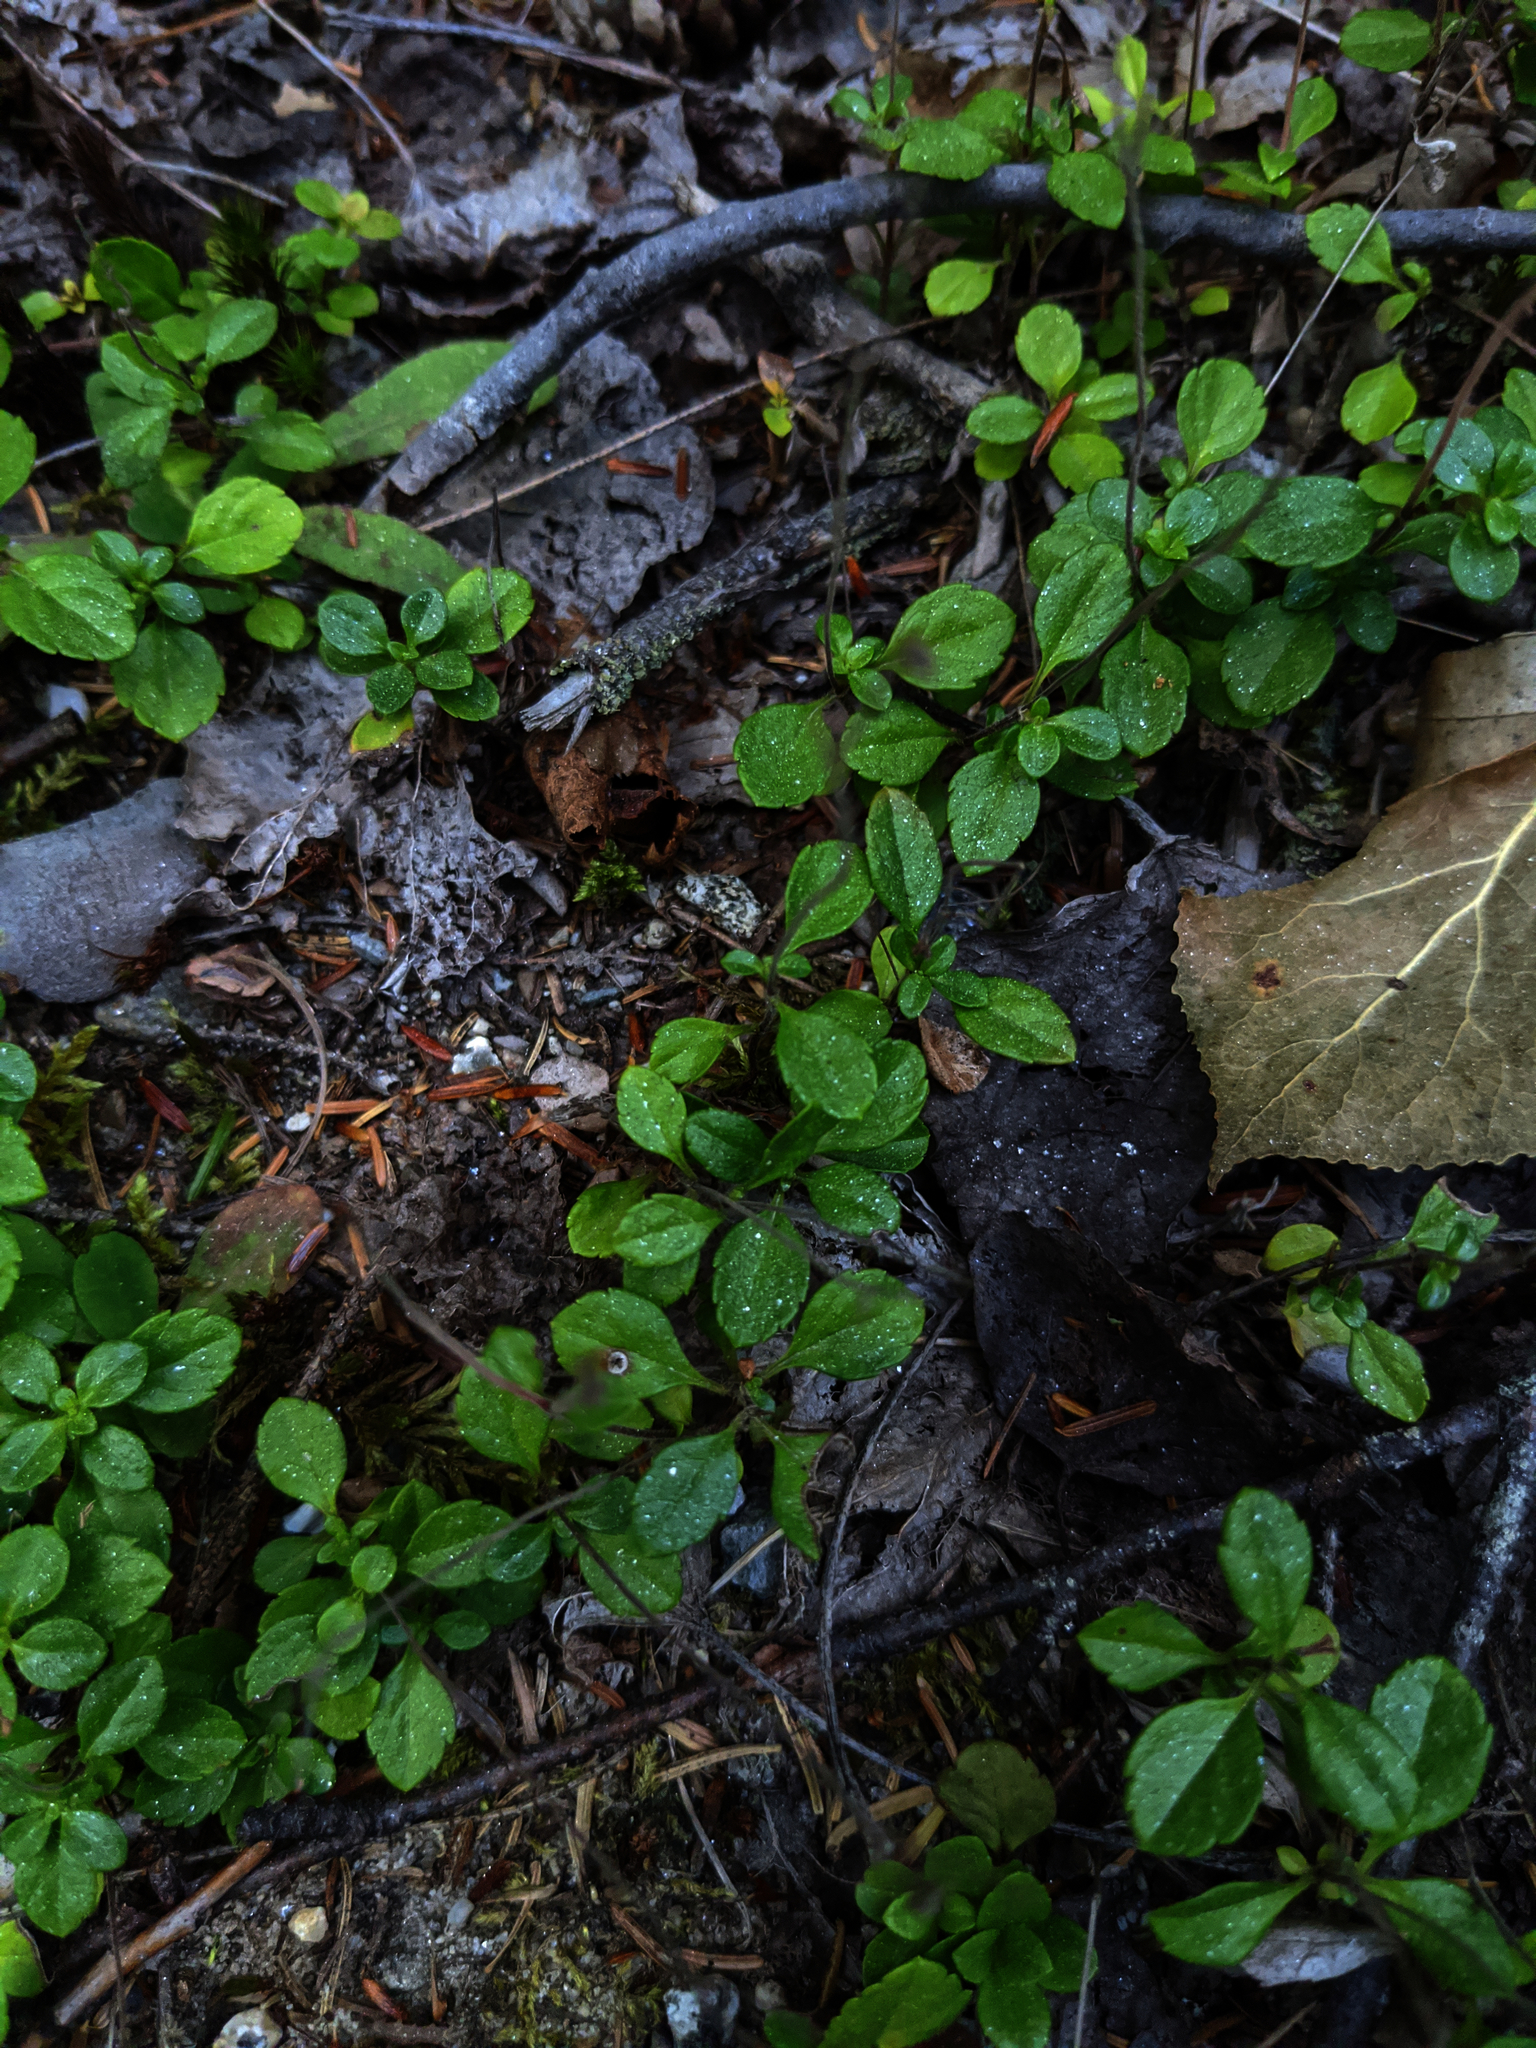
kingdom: Plantae
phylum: Tracheophyta
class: Magnoliopsida
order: Dipsacales
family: Caprifoliaceae
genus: Linnaea
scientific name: Linnaea borealis
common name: Twinflower
